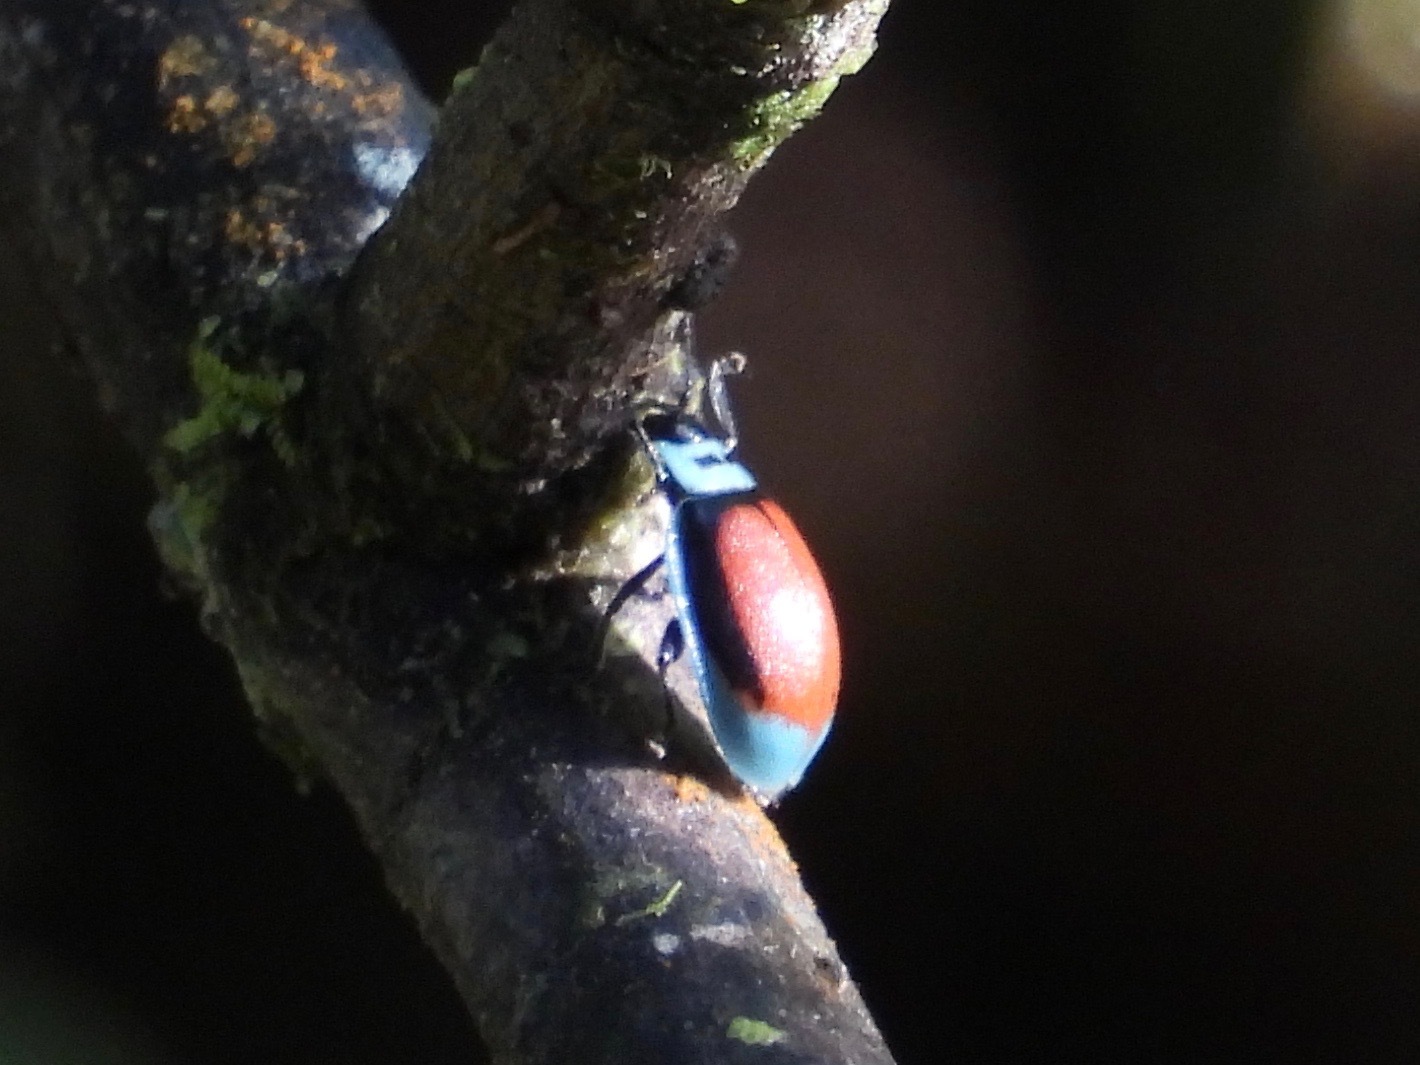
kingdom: Animalia
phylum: Arthropoda
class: Insecta
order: Coleoptera
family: Chrysomelidae
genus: Aspicela
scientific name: Aspicela
